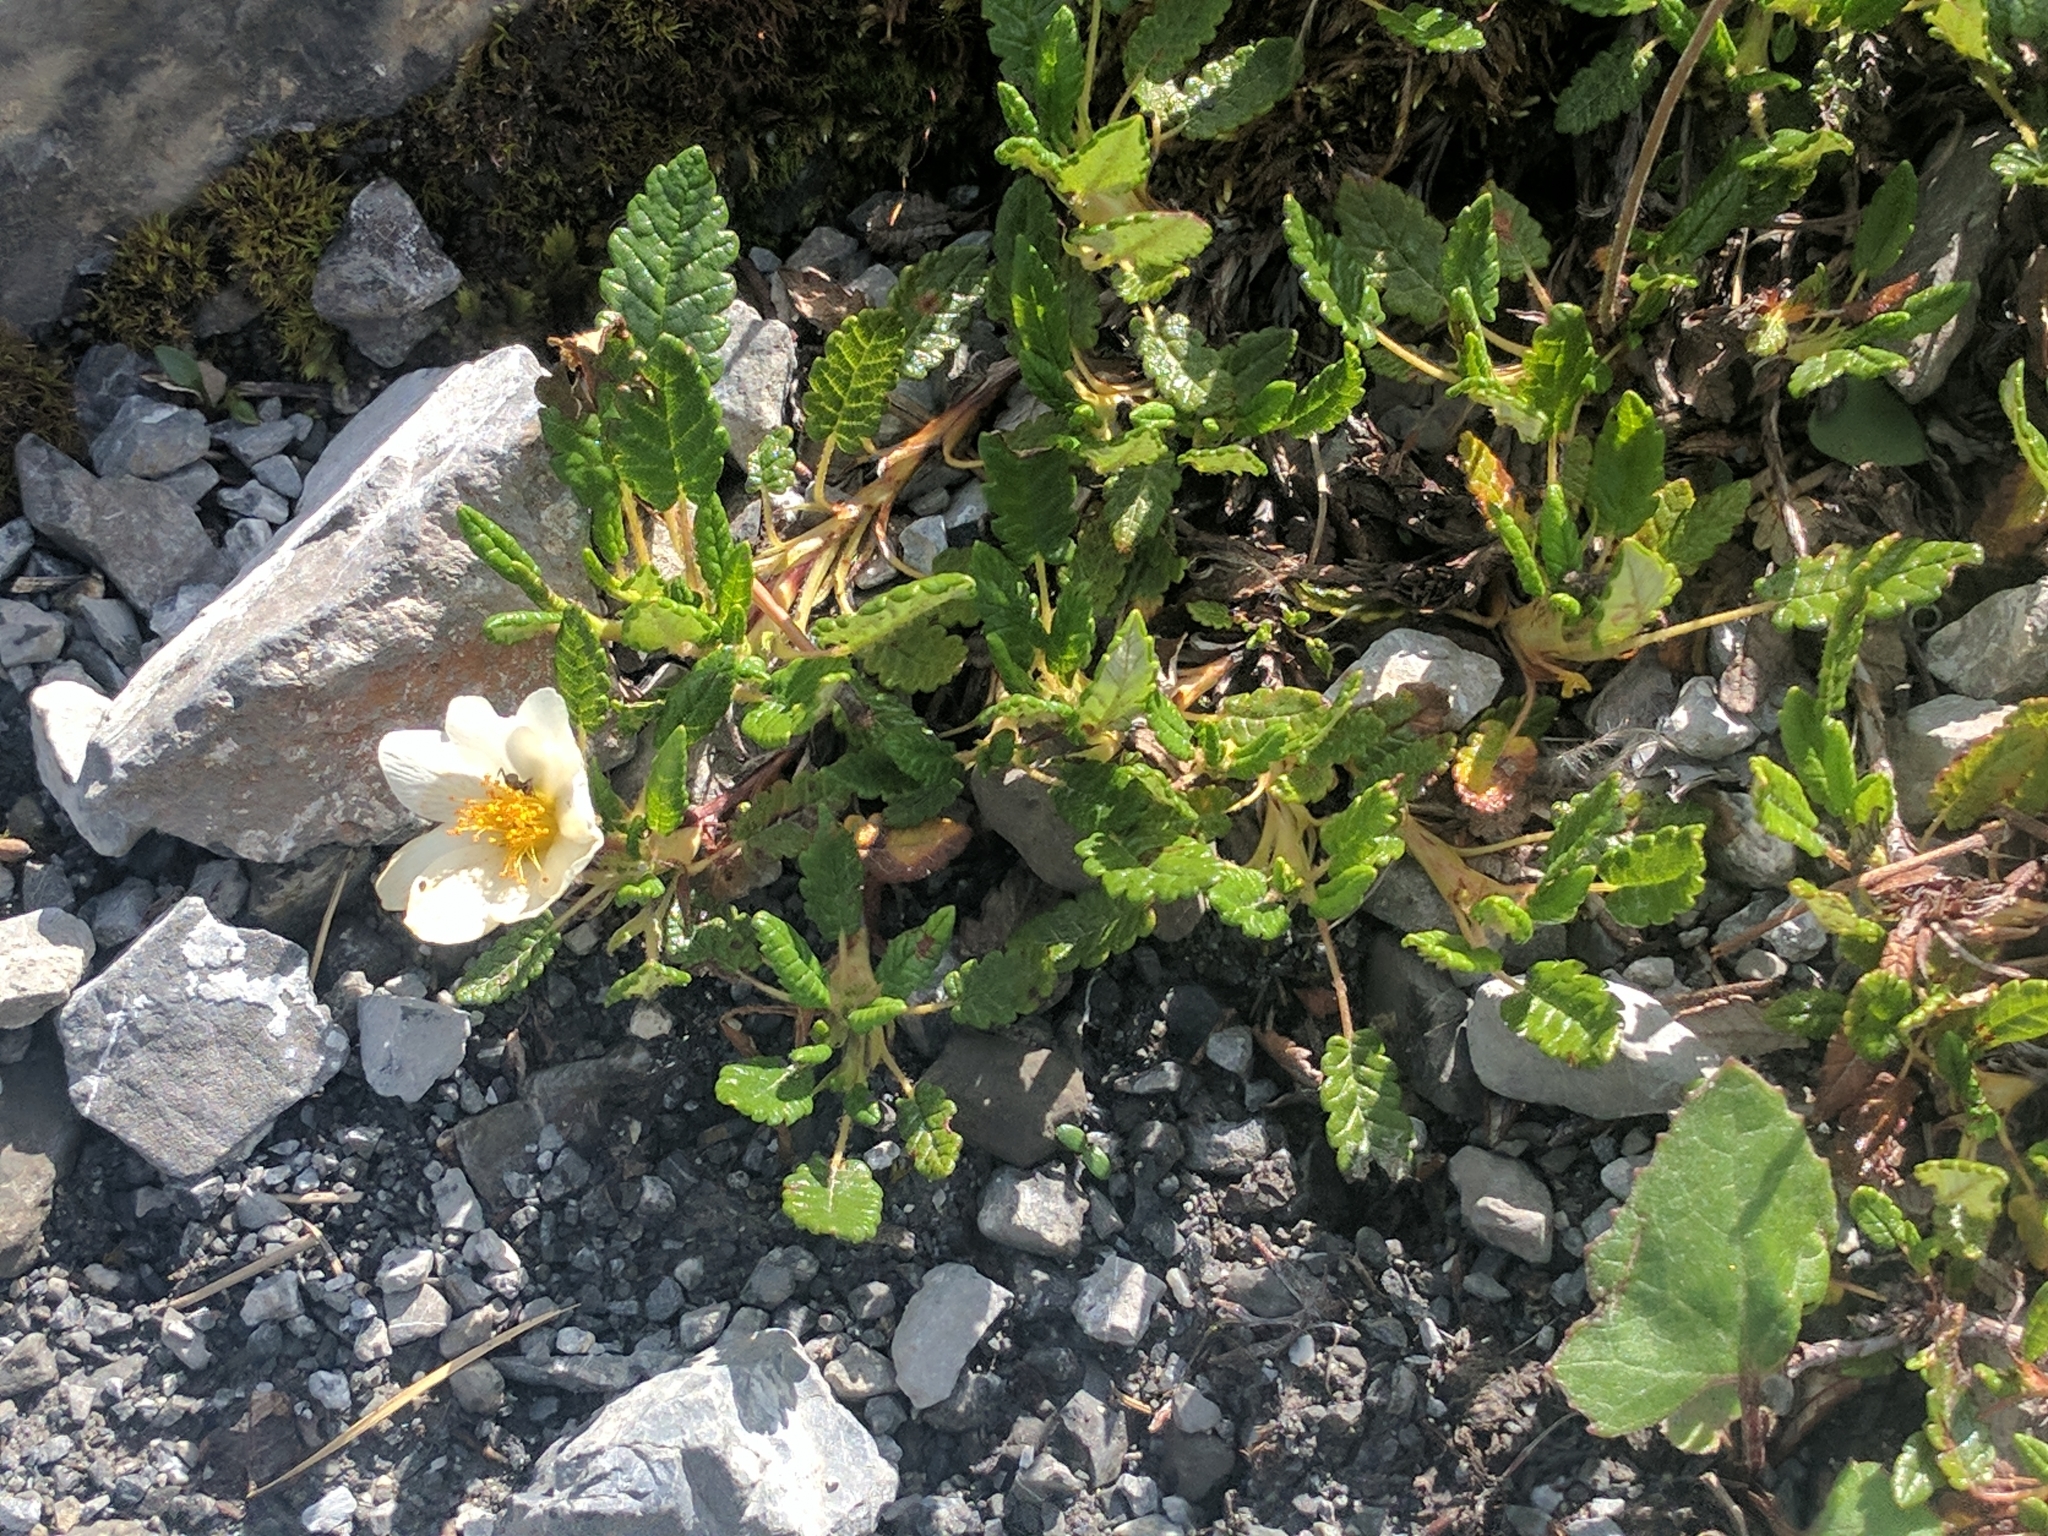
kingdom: Plantae
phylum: Tracheophyta
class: Magnoliopsida
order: Rosales
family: Rosaceae
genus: Dryas
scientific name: Dryas octopetala
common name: Eight-petal mountain-avens
